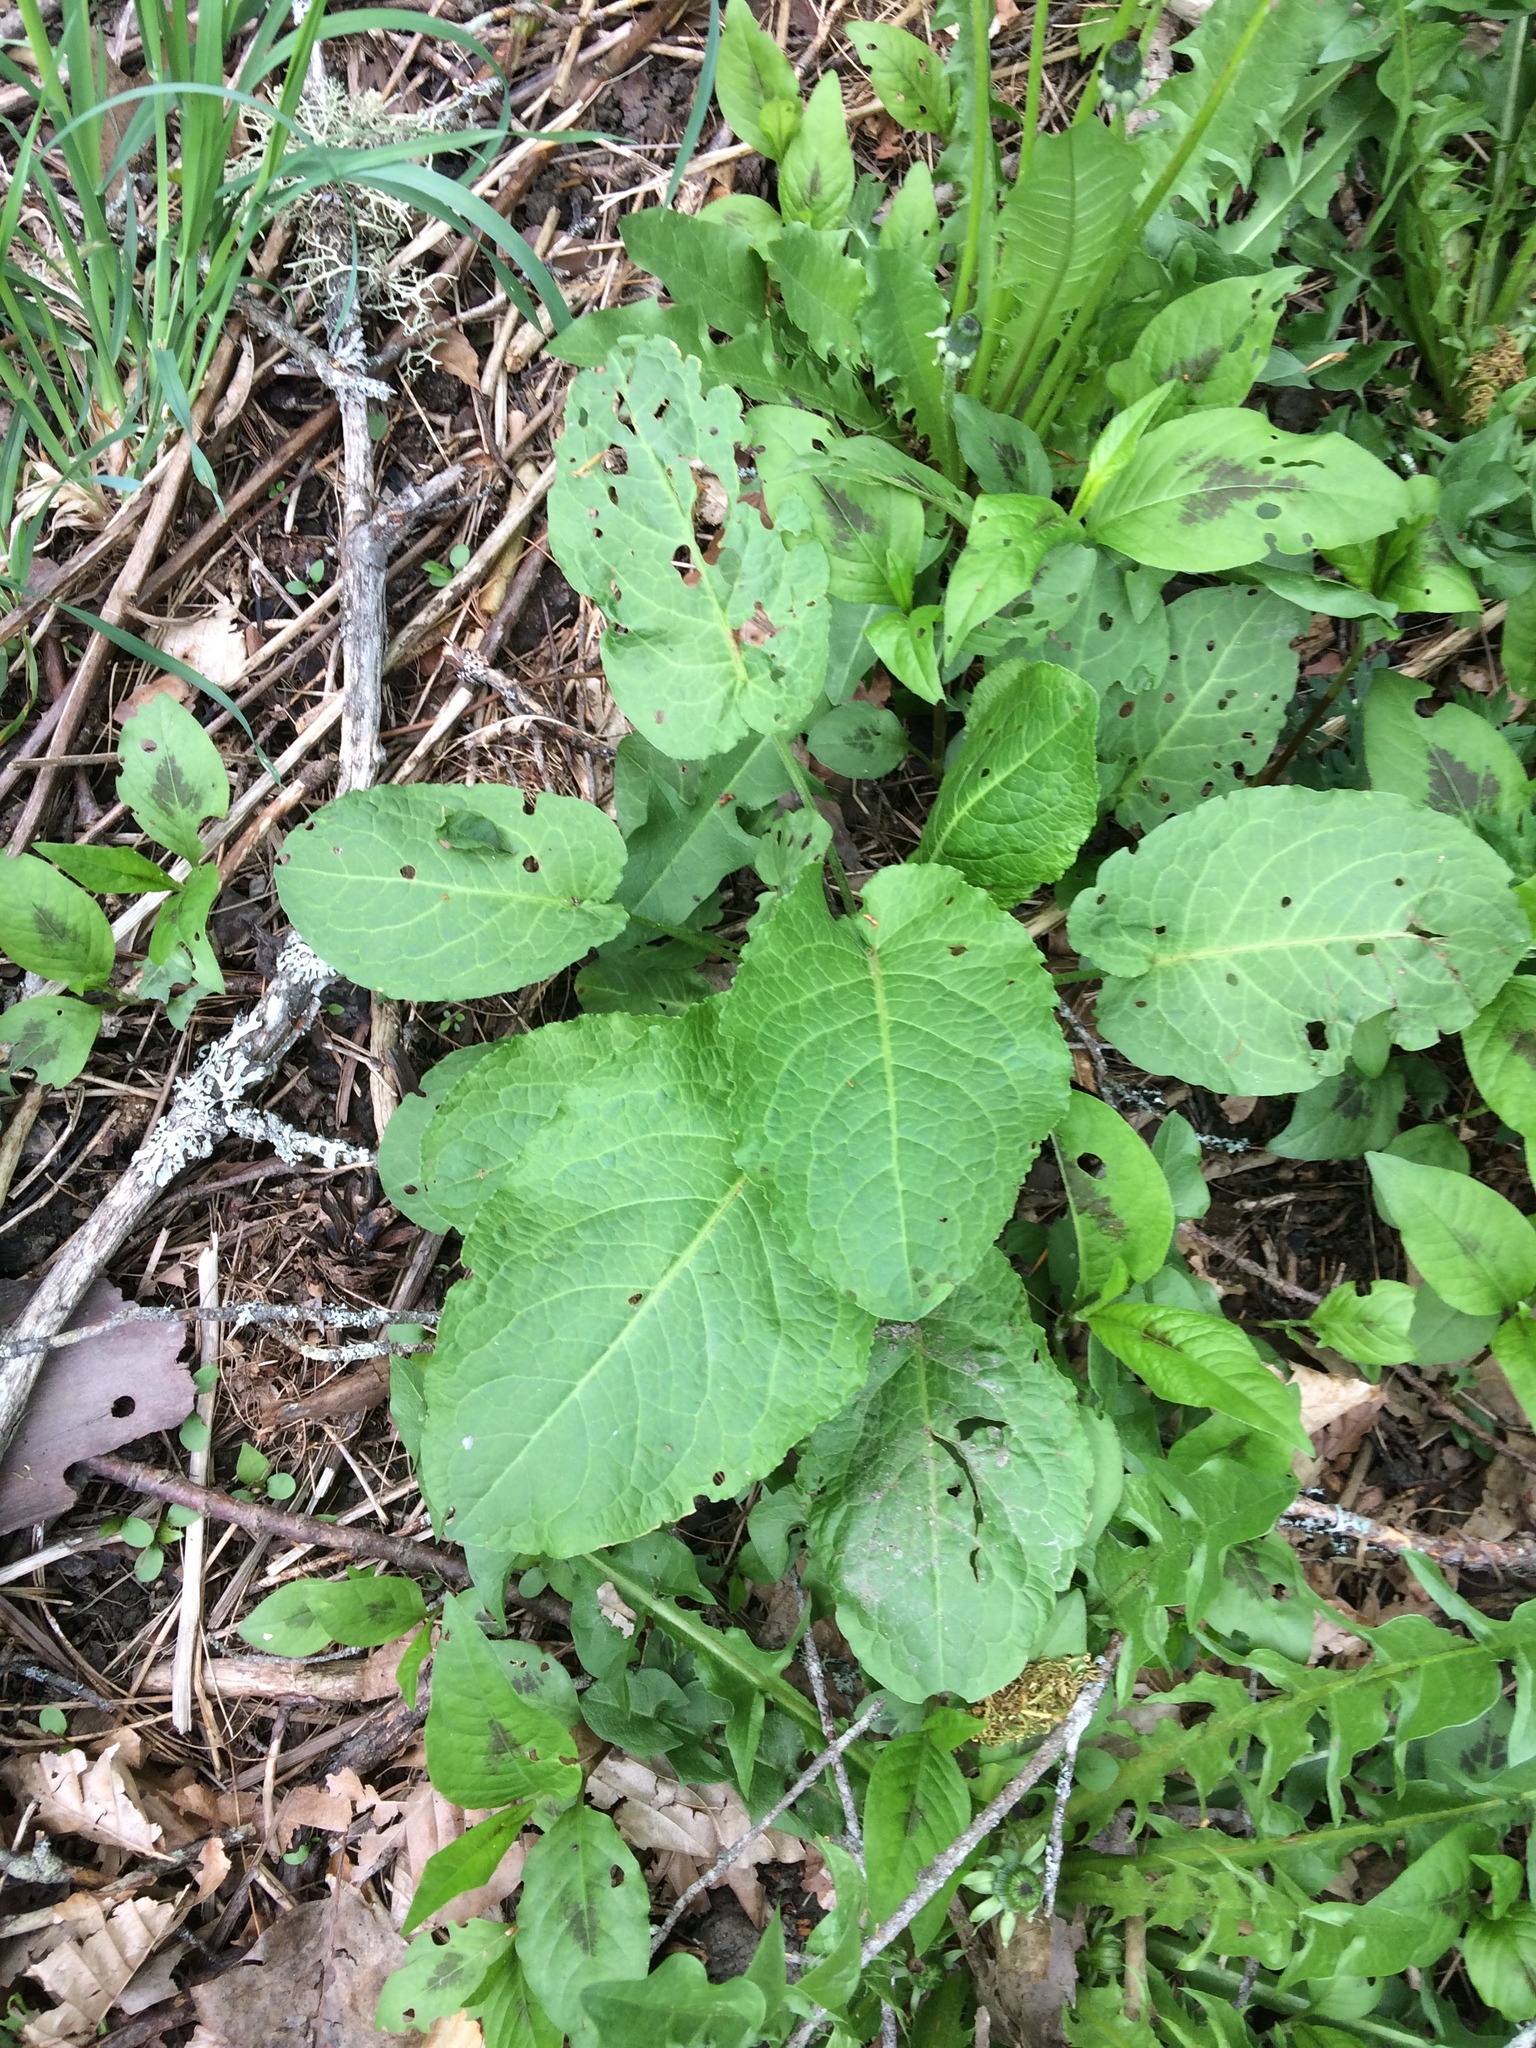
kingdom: Plantae
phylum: Tracheophyta
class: Magnoliopsida
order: Caryophyllales
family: Polygonaceae
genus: Rumex
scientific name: Rumex obtusifolius
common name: Bitter dock
